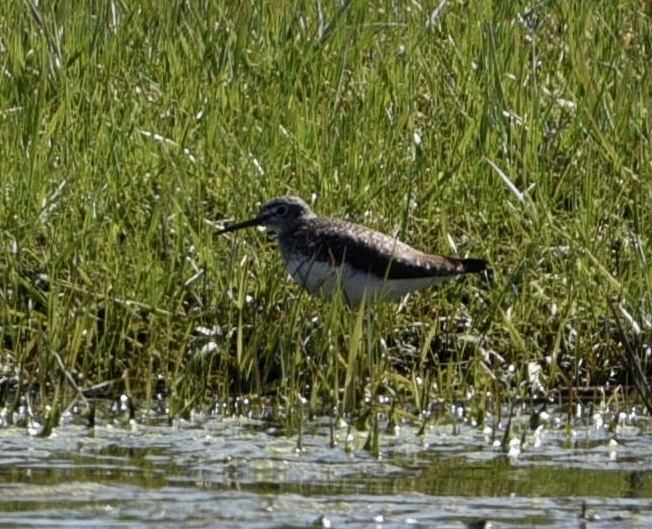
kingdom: Animalia
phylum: Chordata
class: Aves
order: Charadriiformes
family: Scolopacidae
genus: Tringa
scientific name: Tringa ochropus
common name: Green sandpiper
